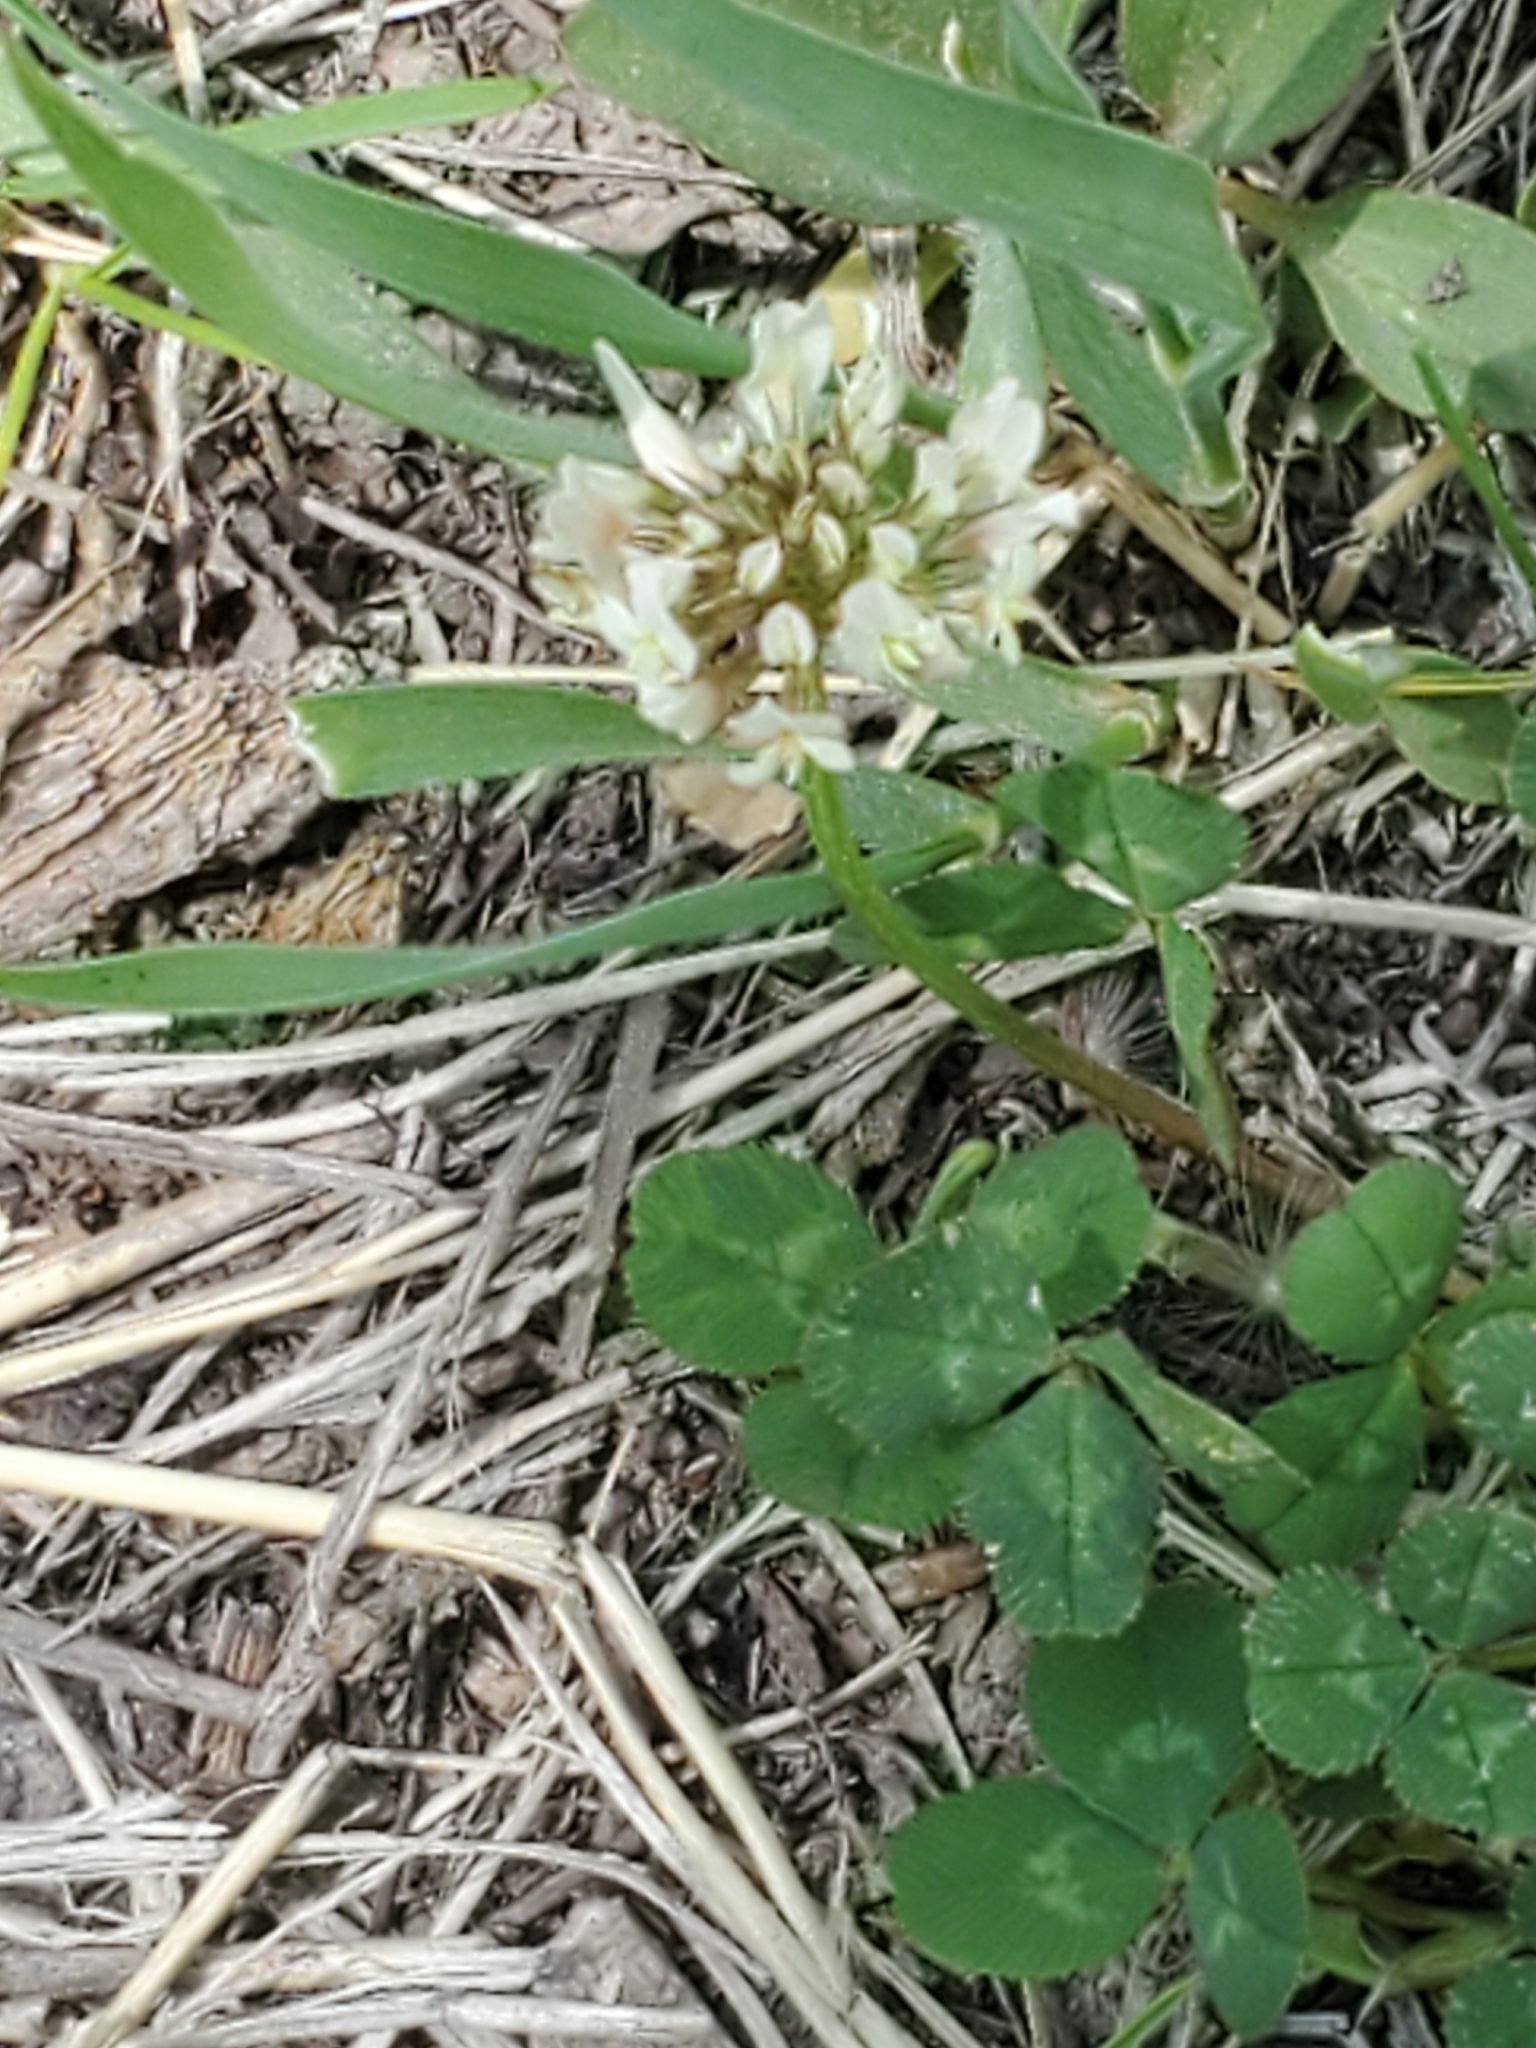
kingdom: Plantae
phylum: Tracheophyta
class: Magnoliopsida
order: Fabales
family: Fabaceae
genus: Trifolium
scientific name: Trifolium repens
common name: White clover
